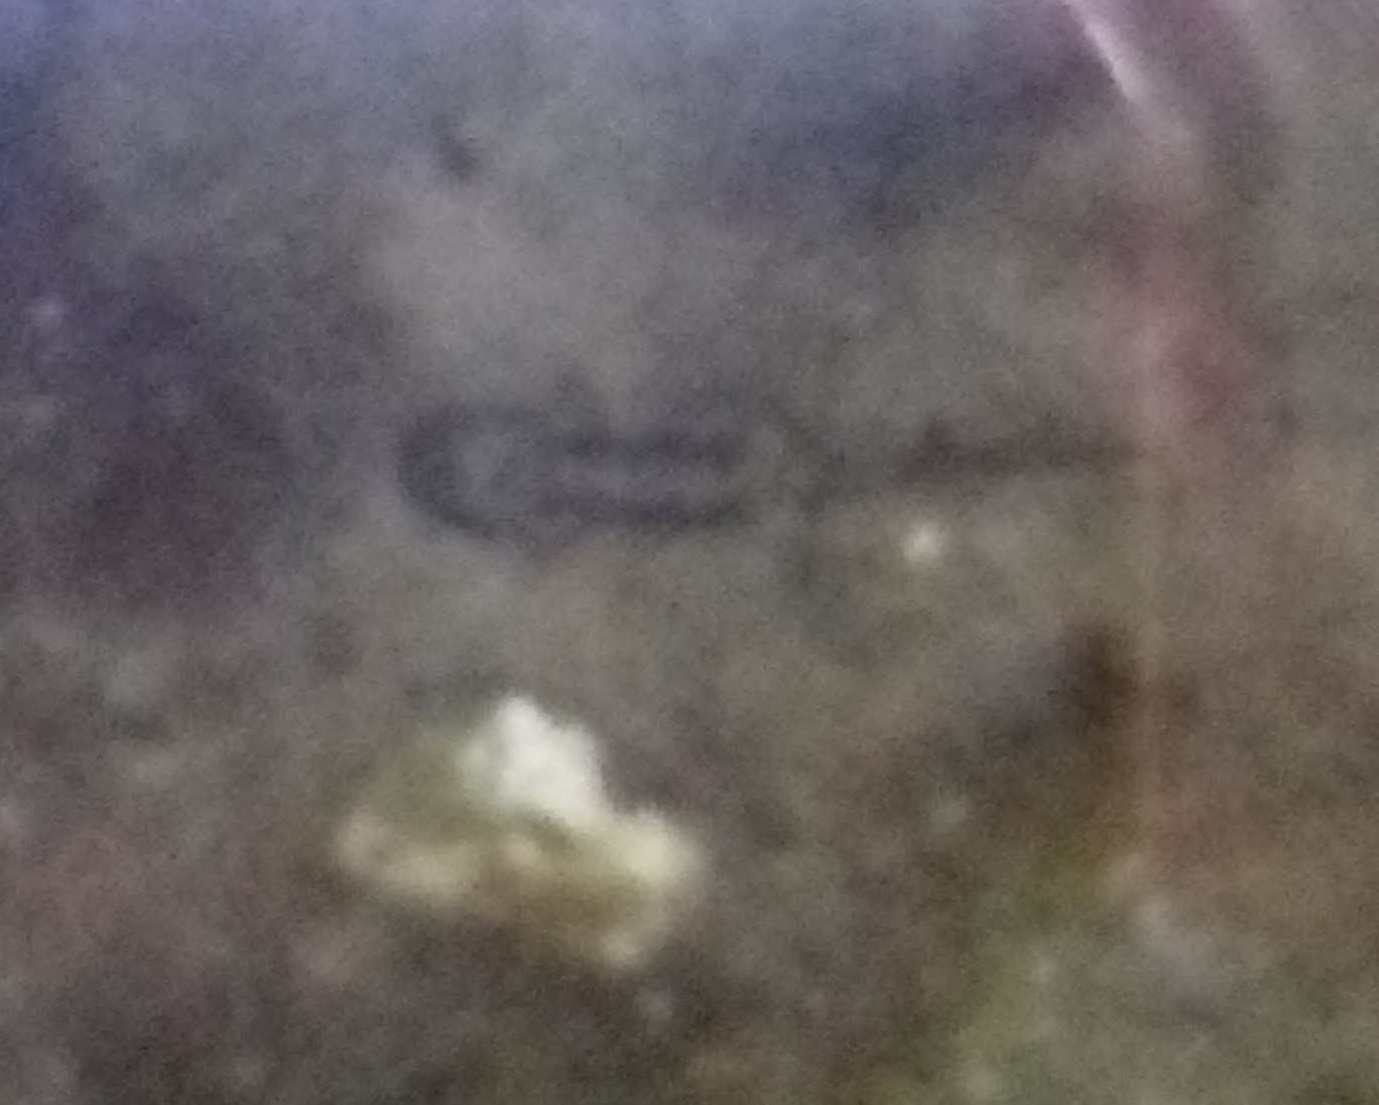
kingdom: Animalia
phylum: Chordata
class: Amphibia
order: Caudata
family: Salamandridae
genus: Salamandra
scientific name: Salamandra salamandra
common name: Fire salamander
